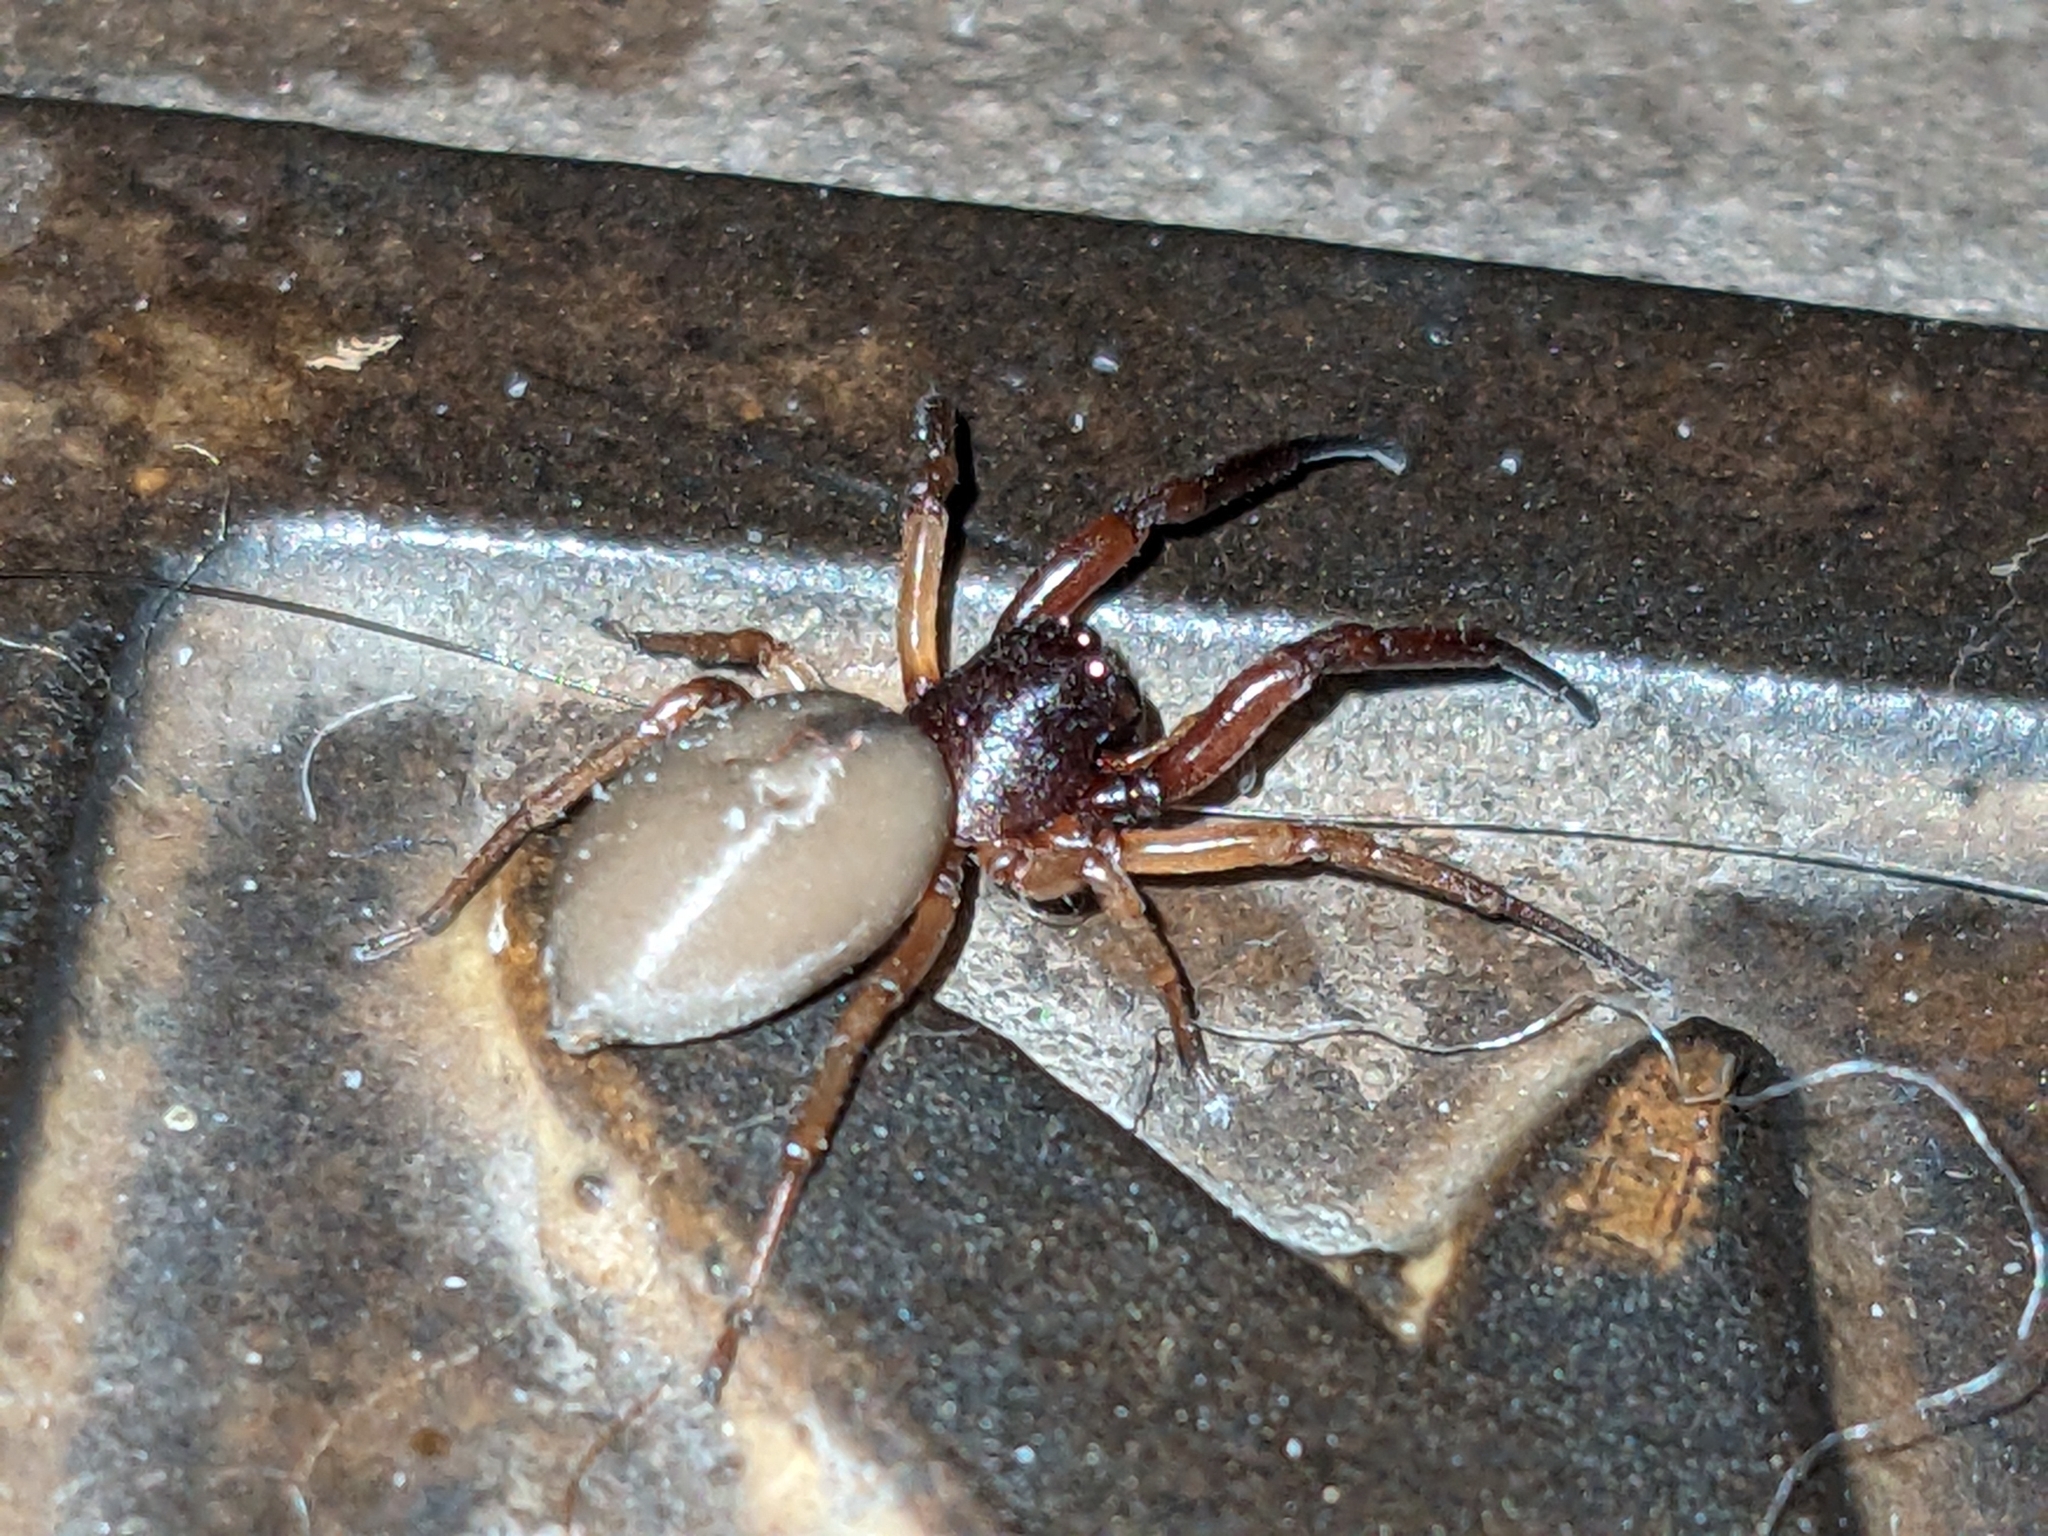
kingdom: Animalia
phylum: Arthropoda
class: Arachnida
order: Araneae
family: Trachelidae
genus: Trachelas
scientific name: Trachelas pacificus
